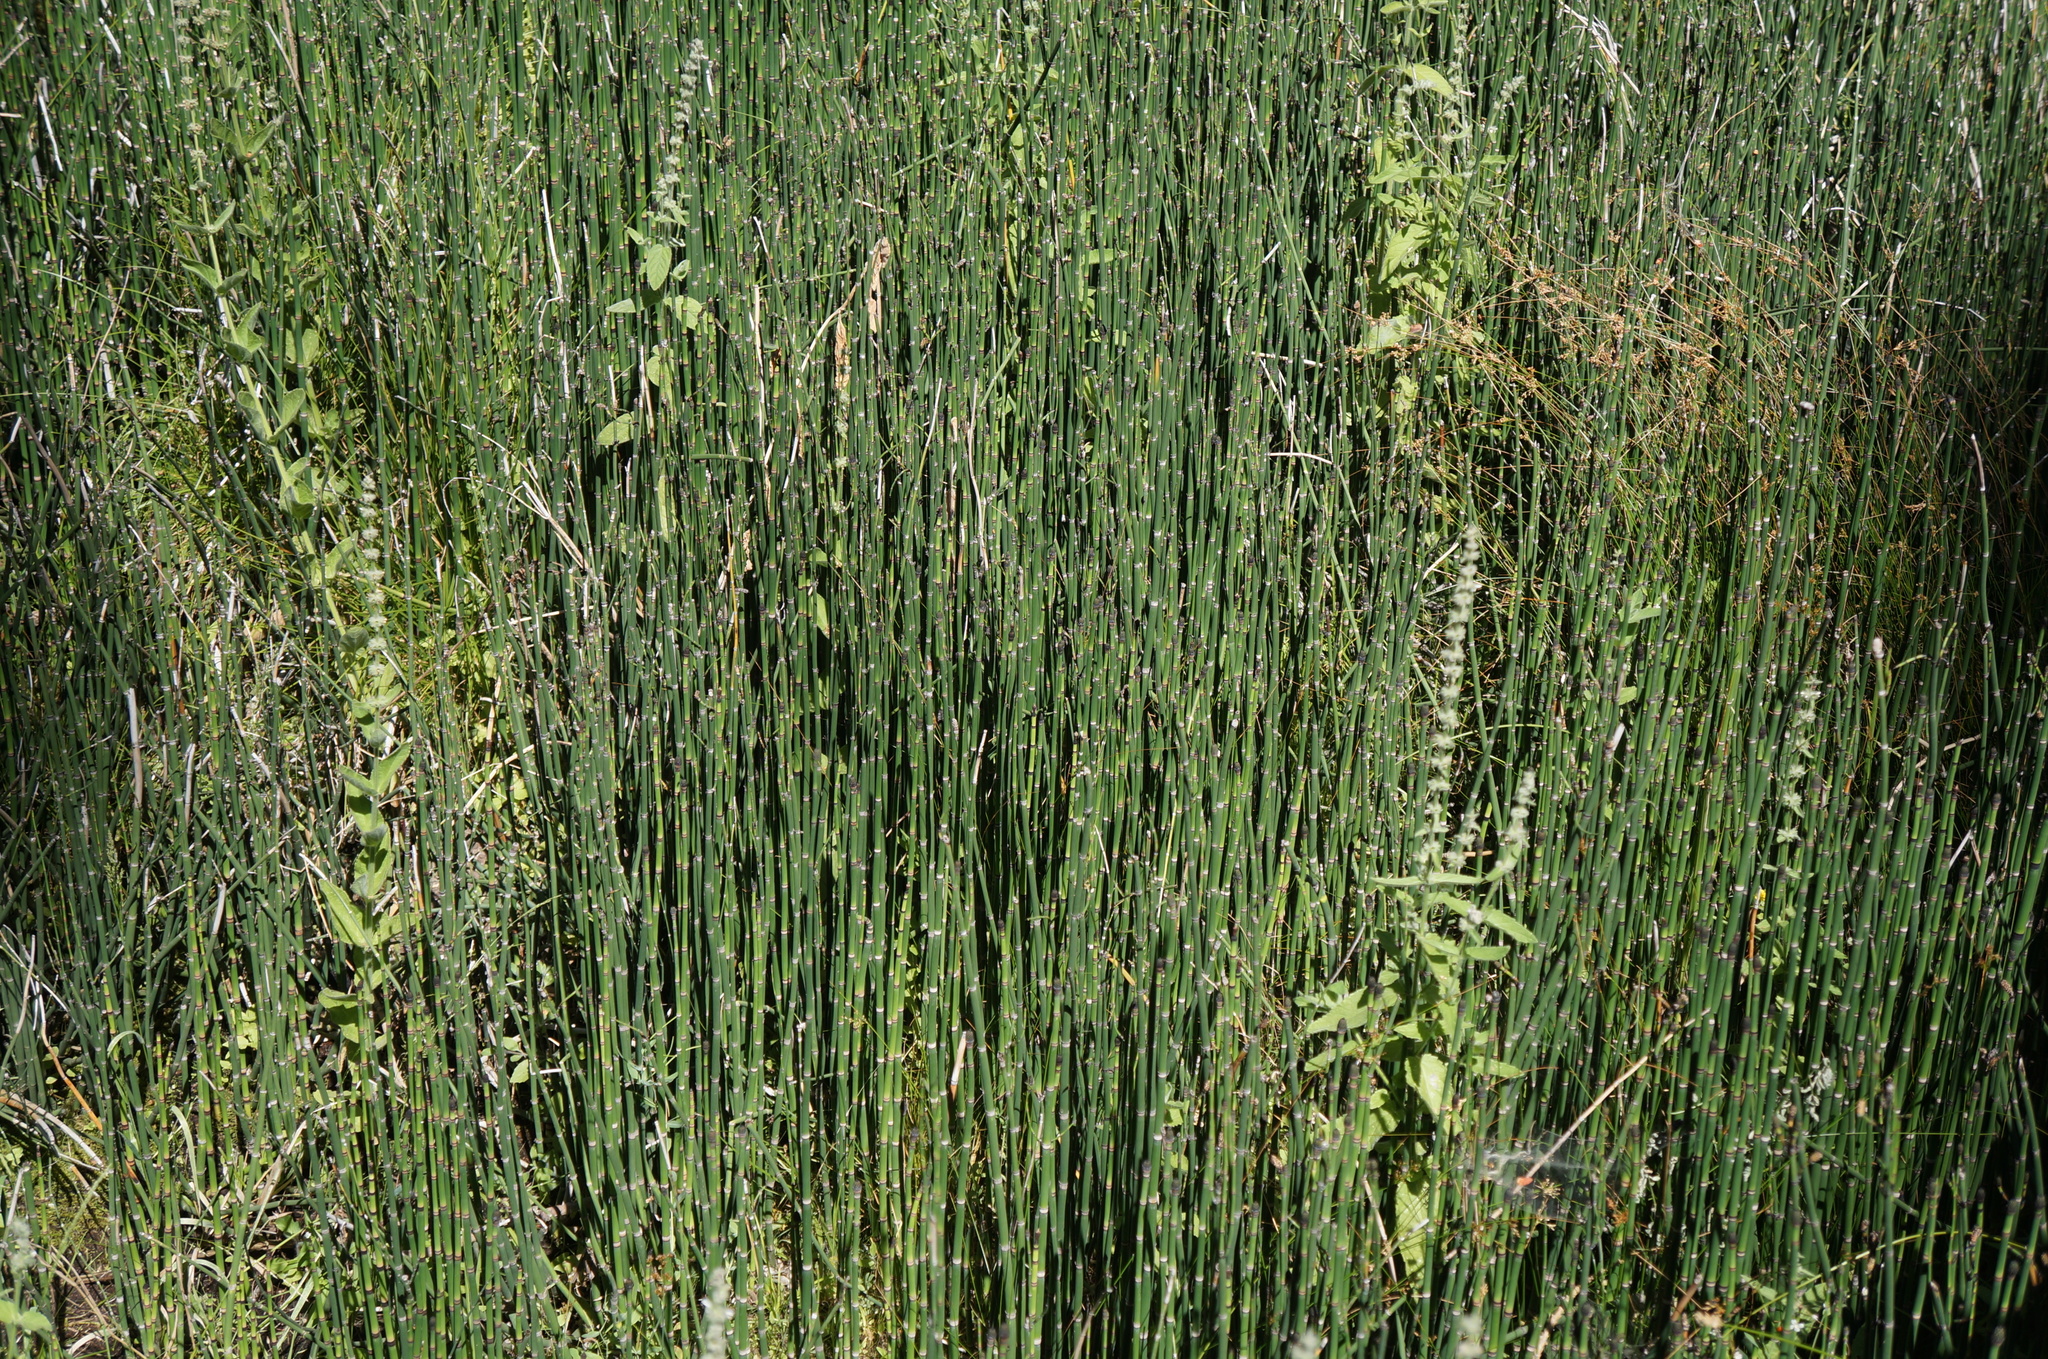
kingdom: Plantae
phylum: Tracheophyta
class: Polypodiopsida
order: Equisetales
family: Equisetaceae
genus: Equisetum
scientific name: Equisetum praealtum
